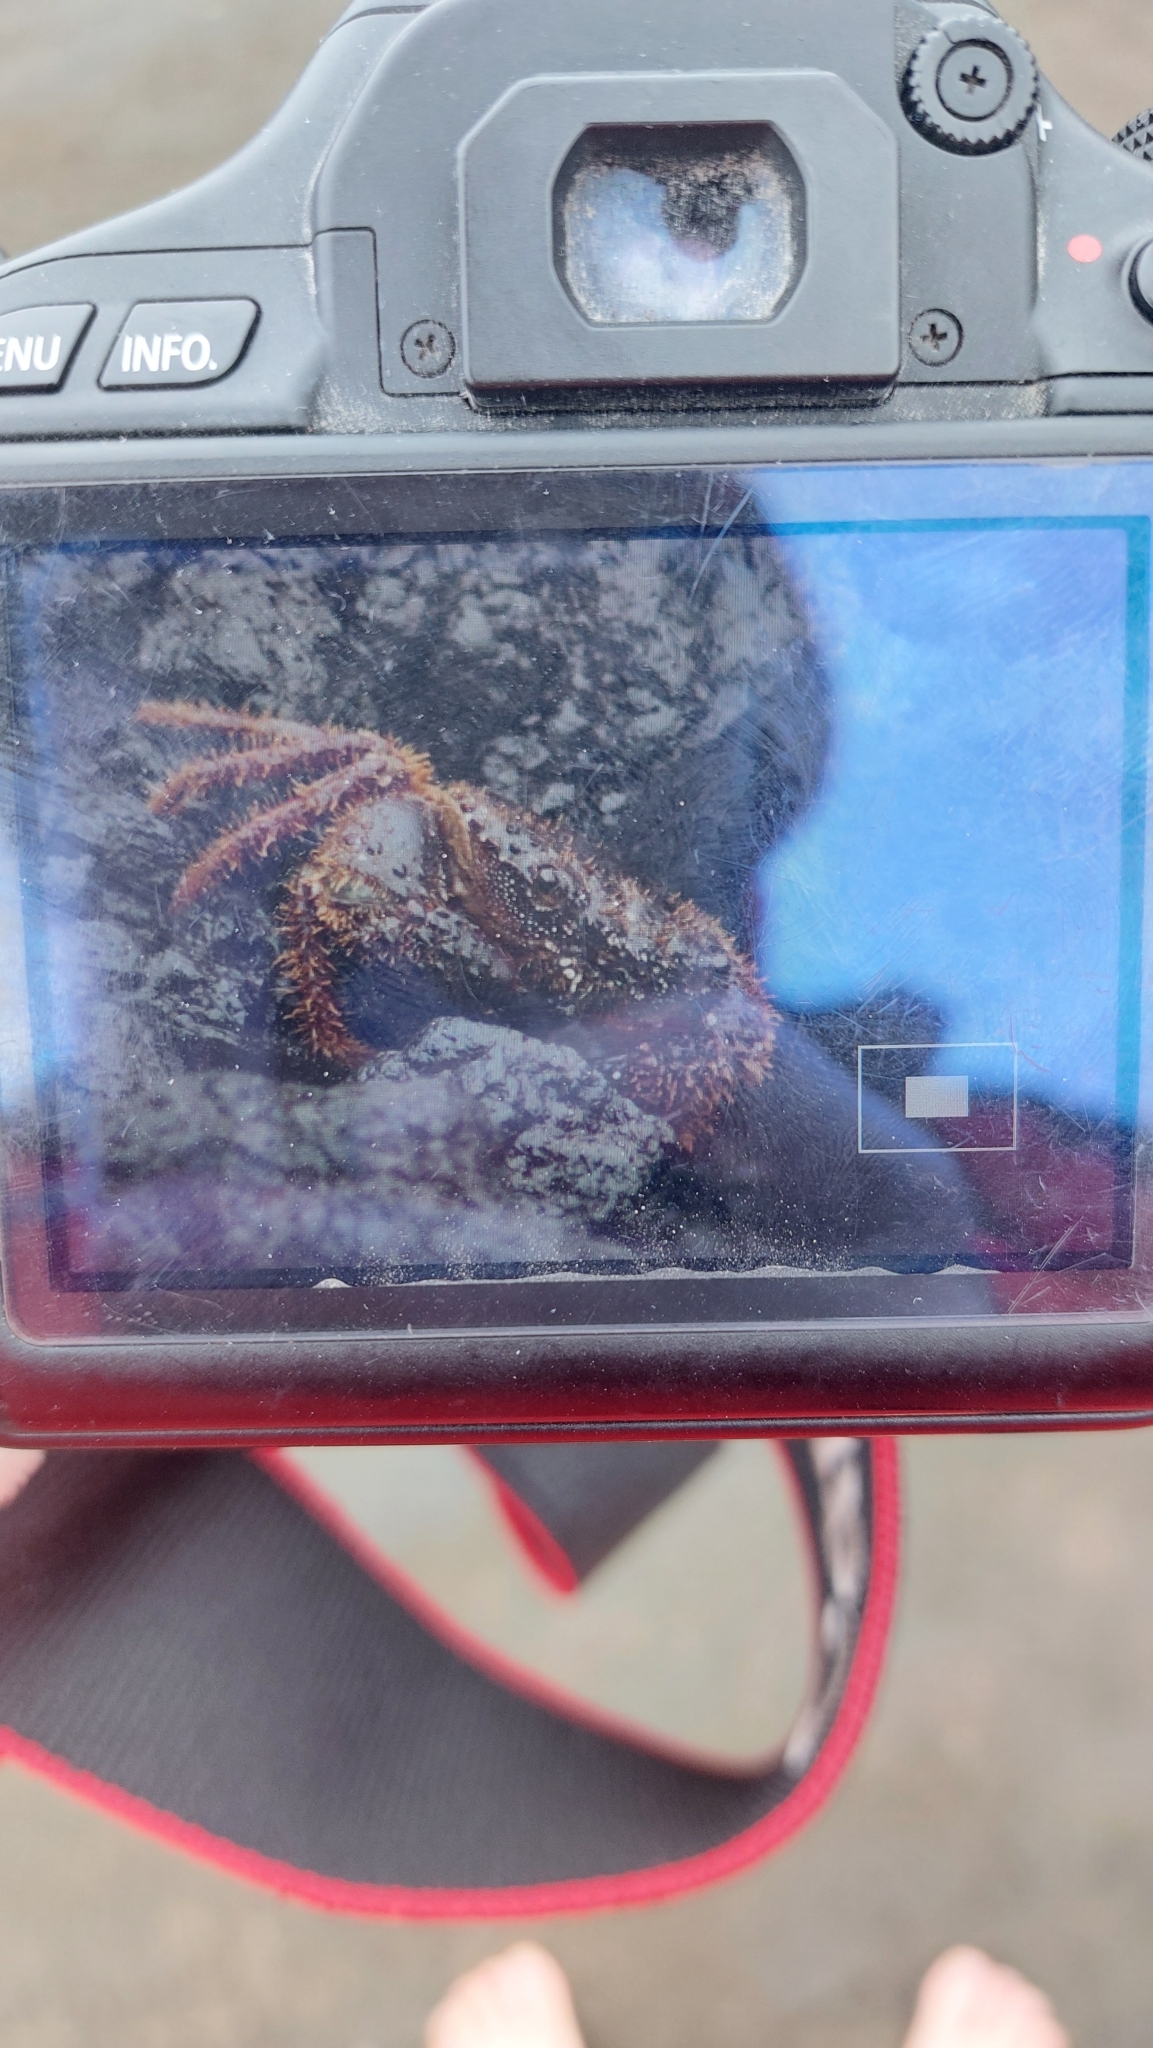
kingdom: Animalia
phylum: Arthropoda
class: Malacostraca
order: Decapoda
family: Eriphiidae
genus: Eriphia
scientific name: Eriphia verrucosa
